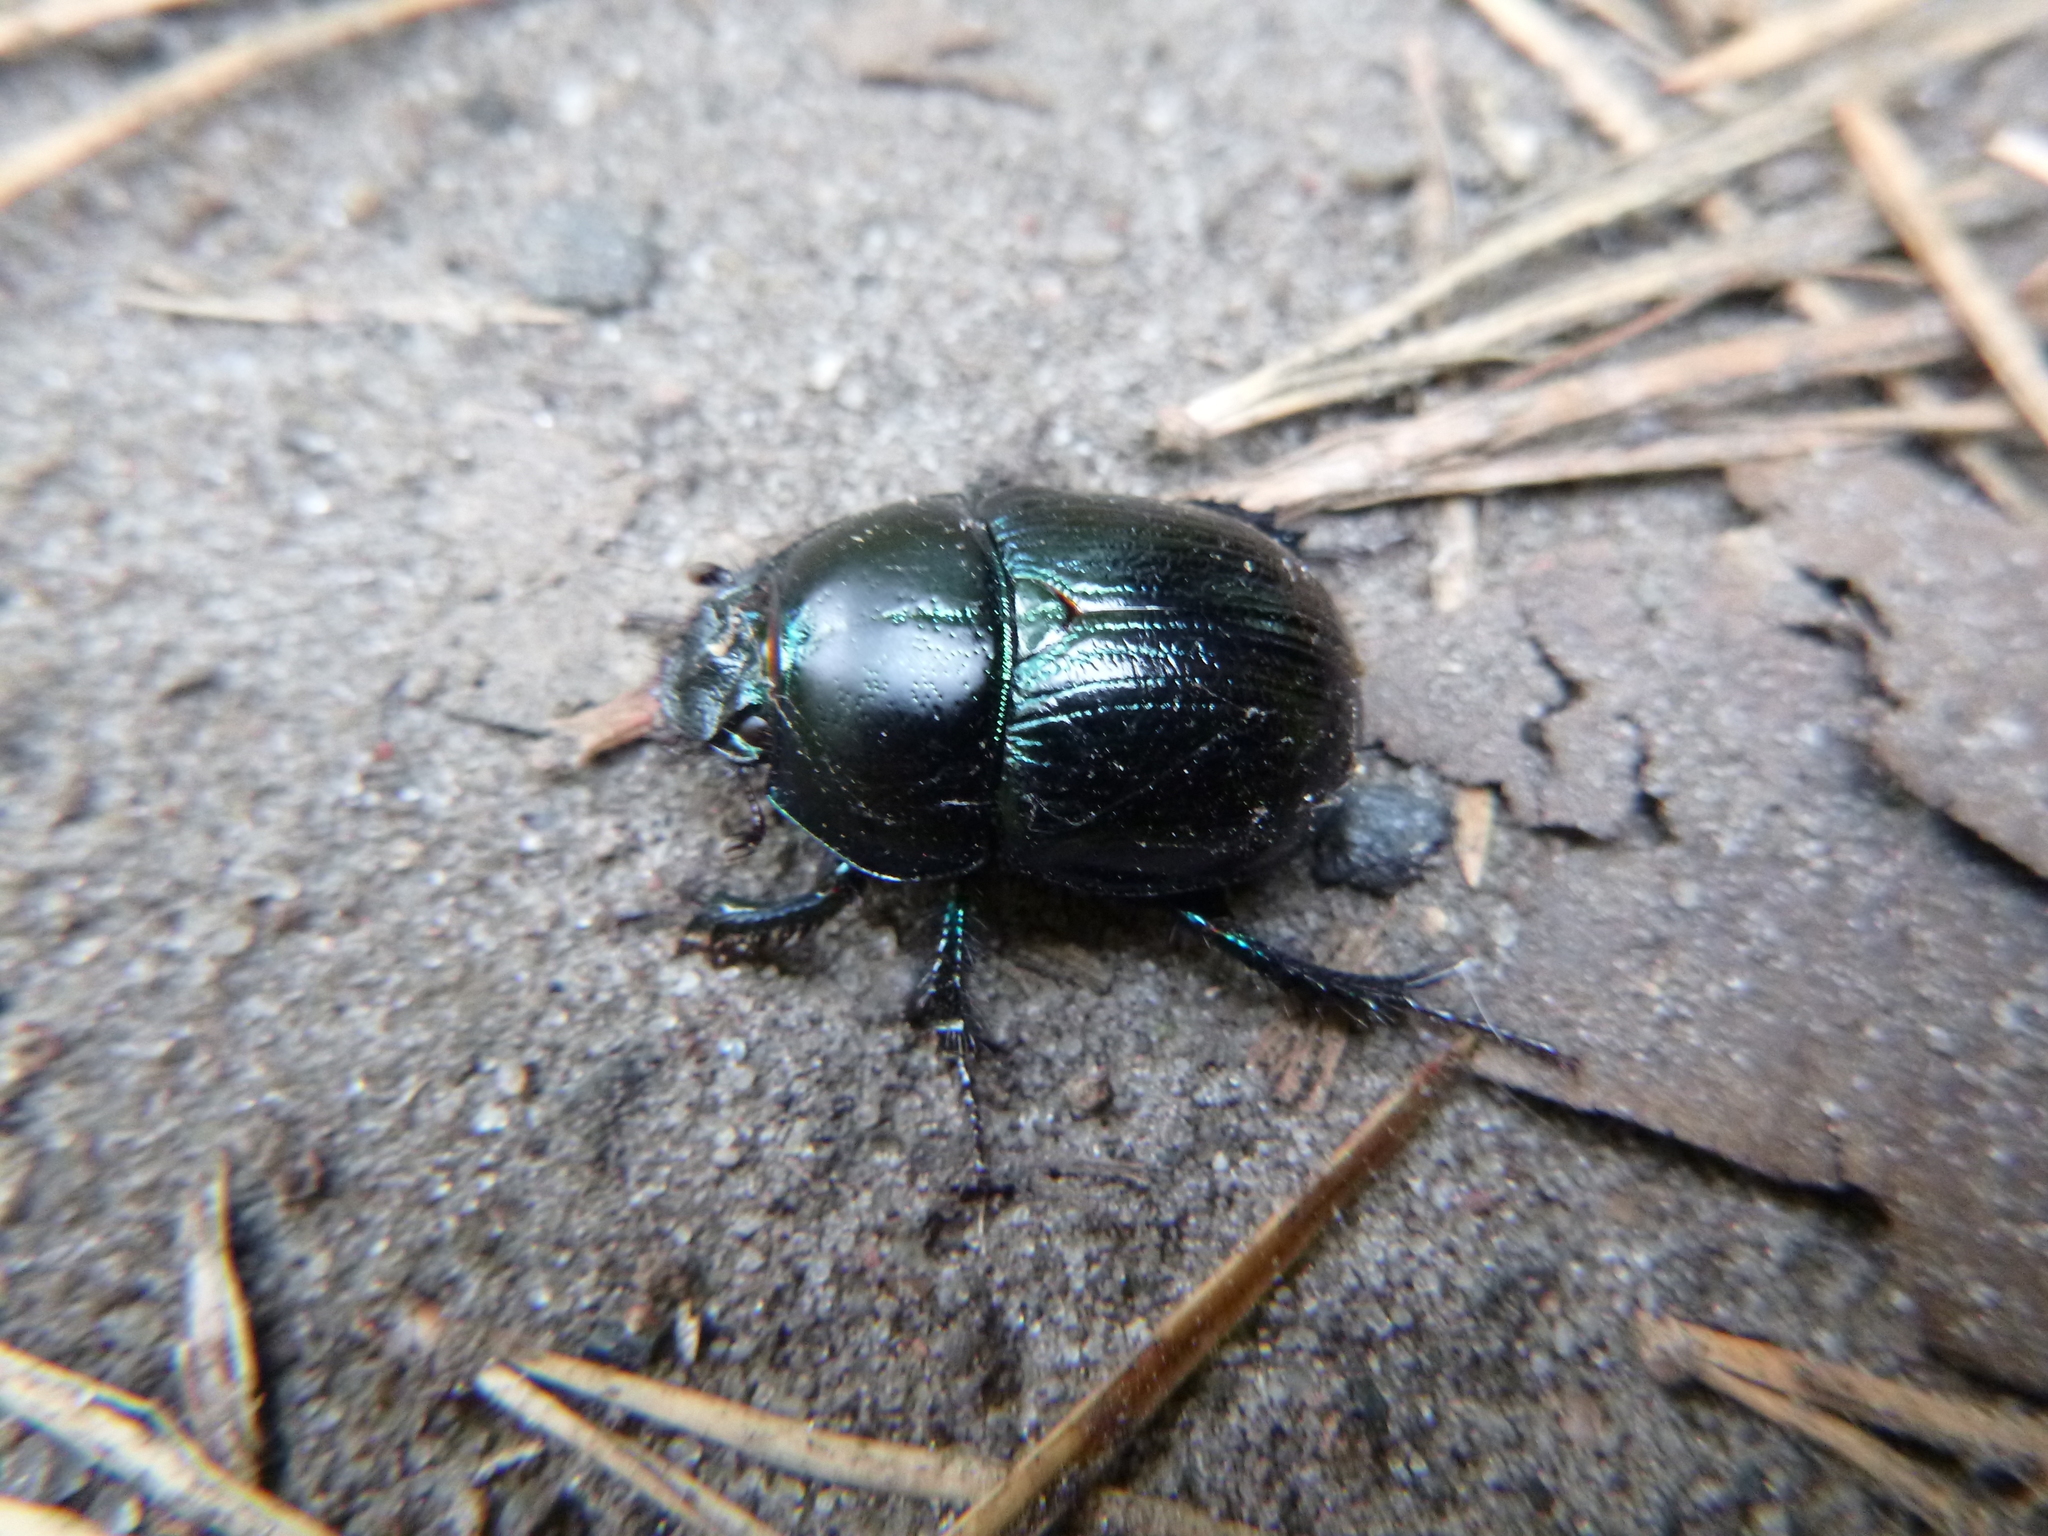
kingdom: Animalia
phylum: Arthropoda
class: Insecta
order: Coleoptera
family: Geotrupidae
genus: Anoplotrupes
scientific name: Anoplotrupes stercorosus
